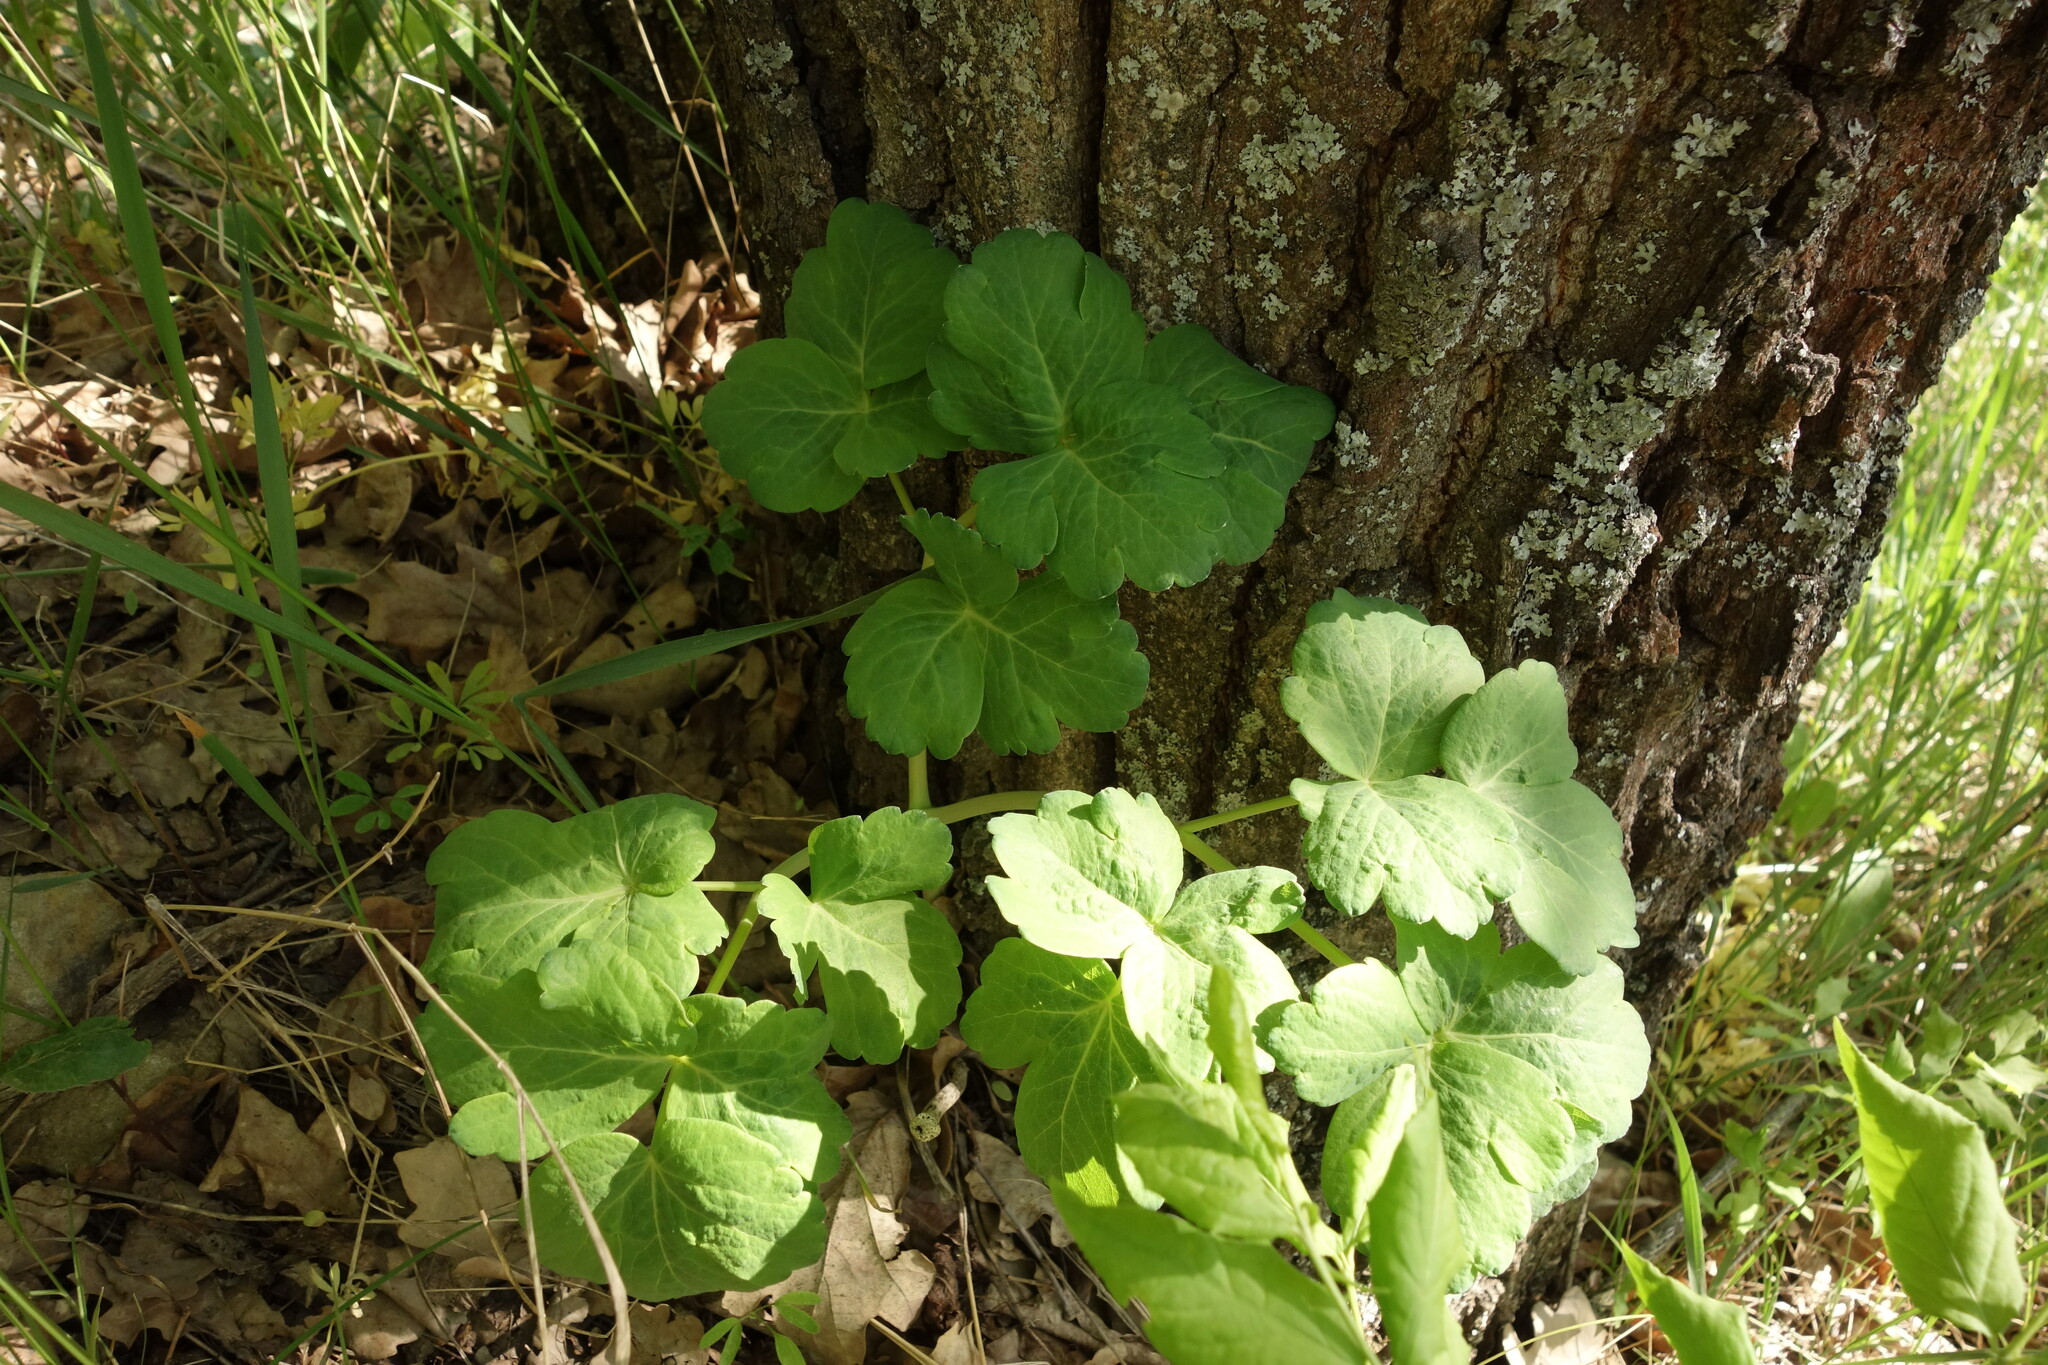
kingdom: Plantae
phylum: Tracheophyta
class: Magnoliopsida
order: Apiales
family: Apiaceae
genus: Laser
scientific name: Laser trilobum
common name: Laser
